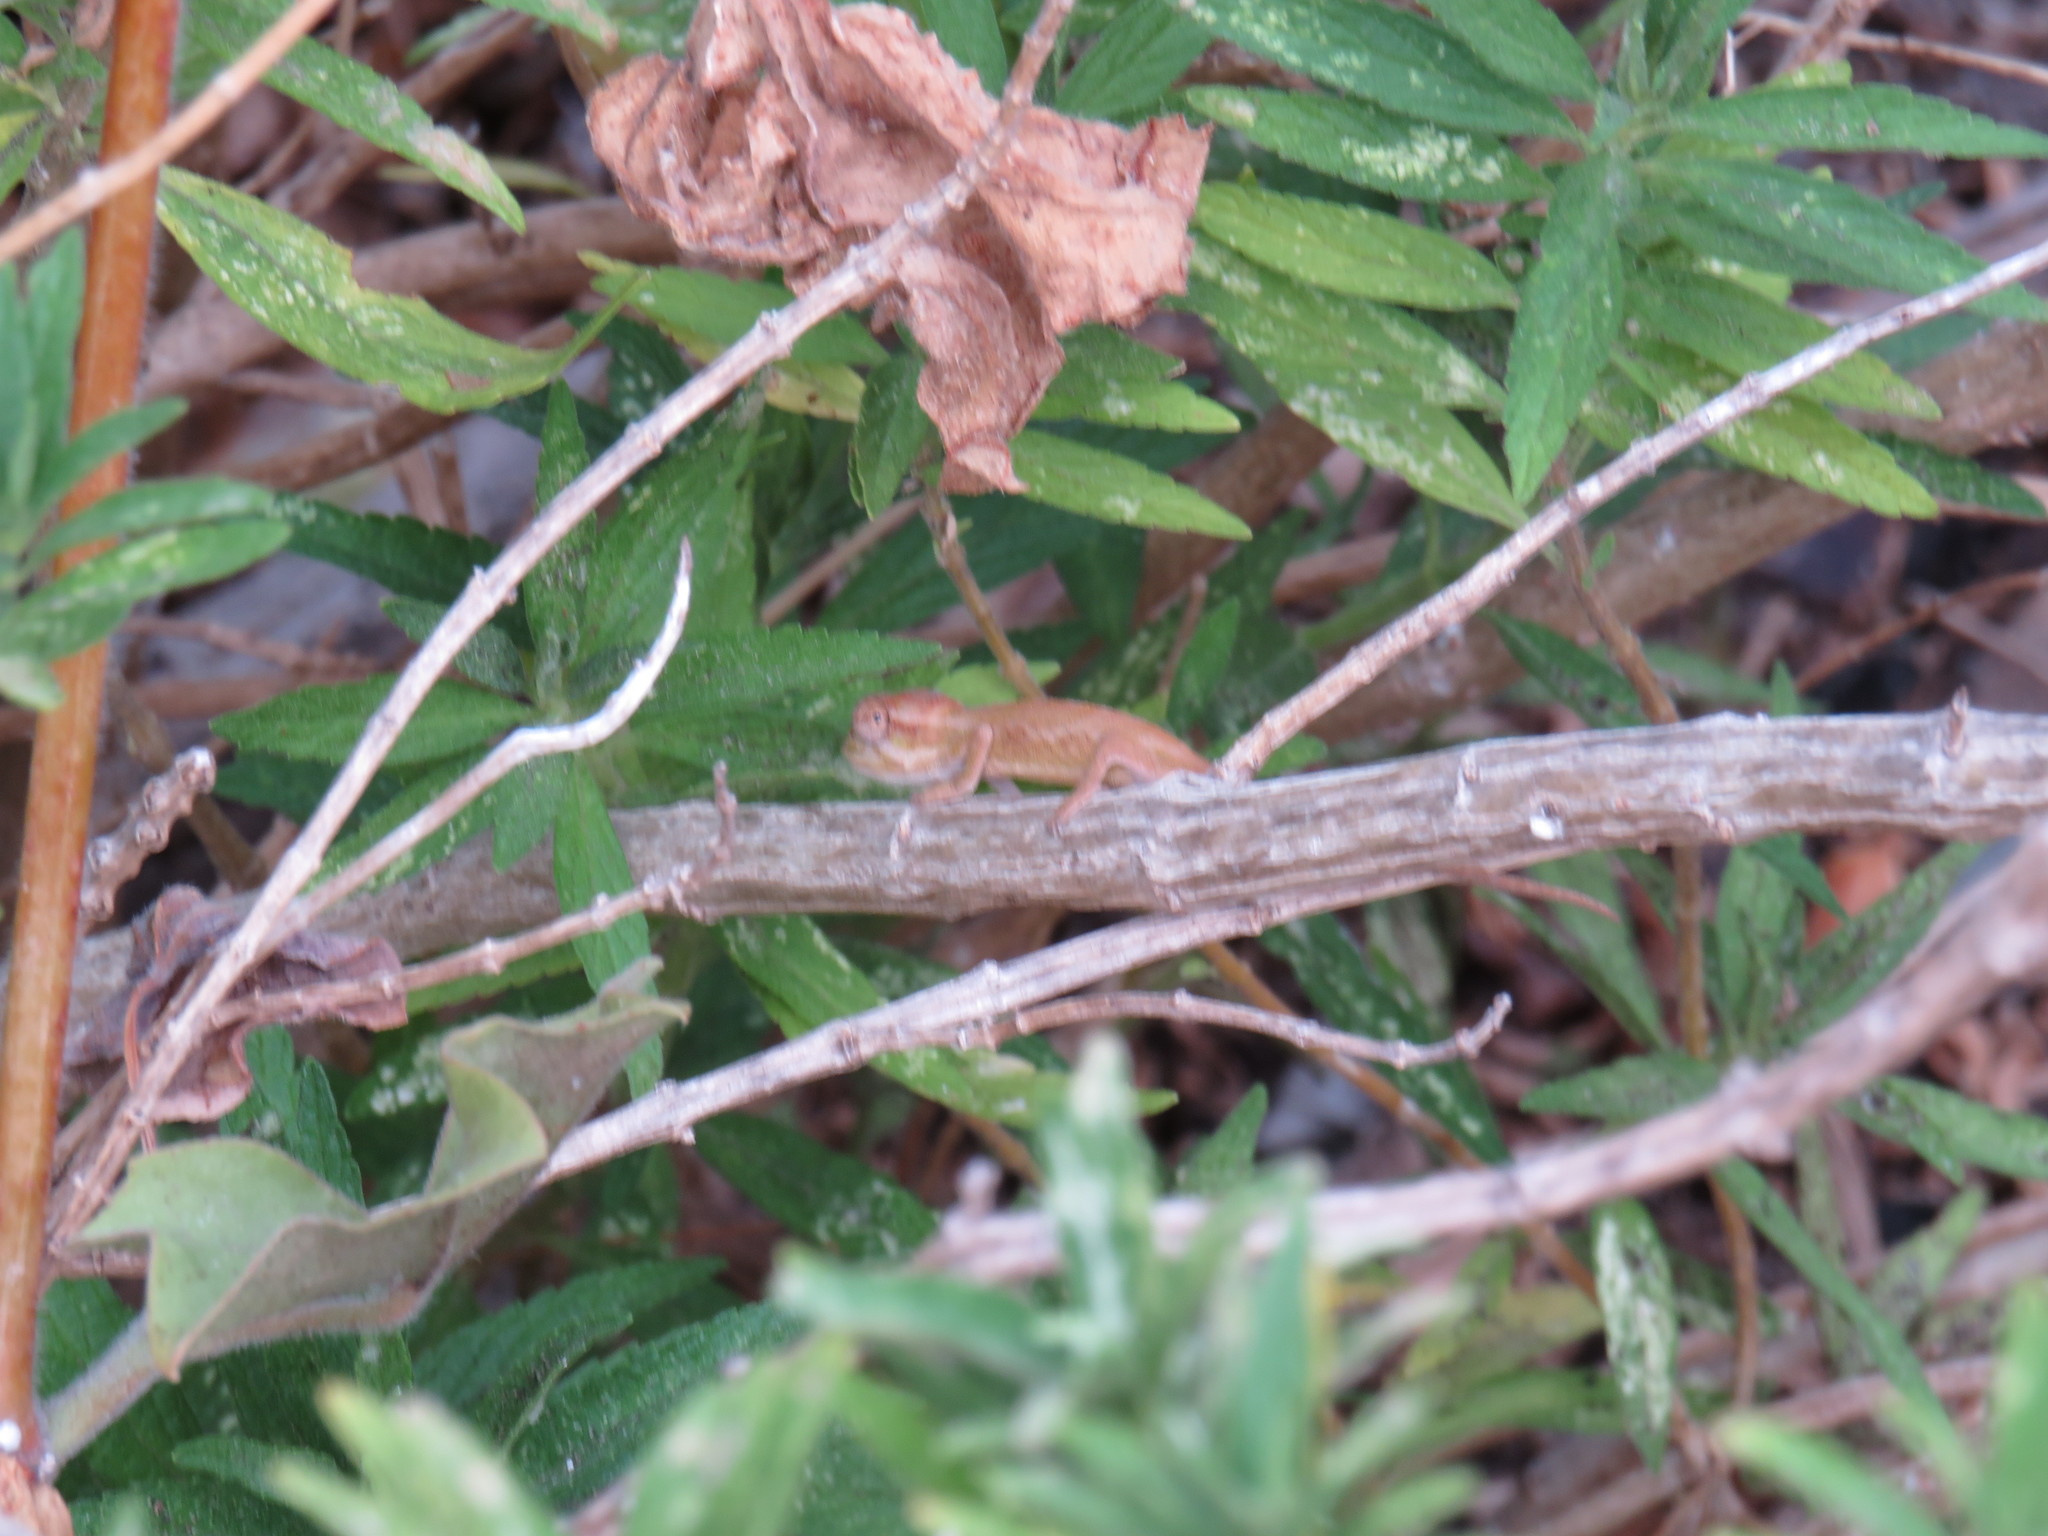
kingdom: Animalia
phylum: Chordata
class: Squamata
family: Chamaeleonidae
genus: Bradypodion
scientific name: Bradypodion pumilum
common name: Cape dwarf chameleon
